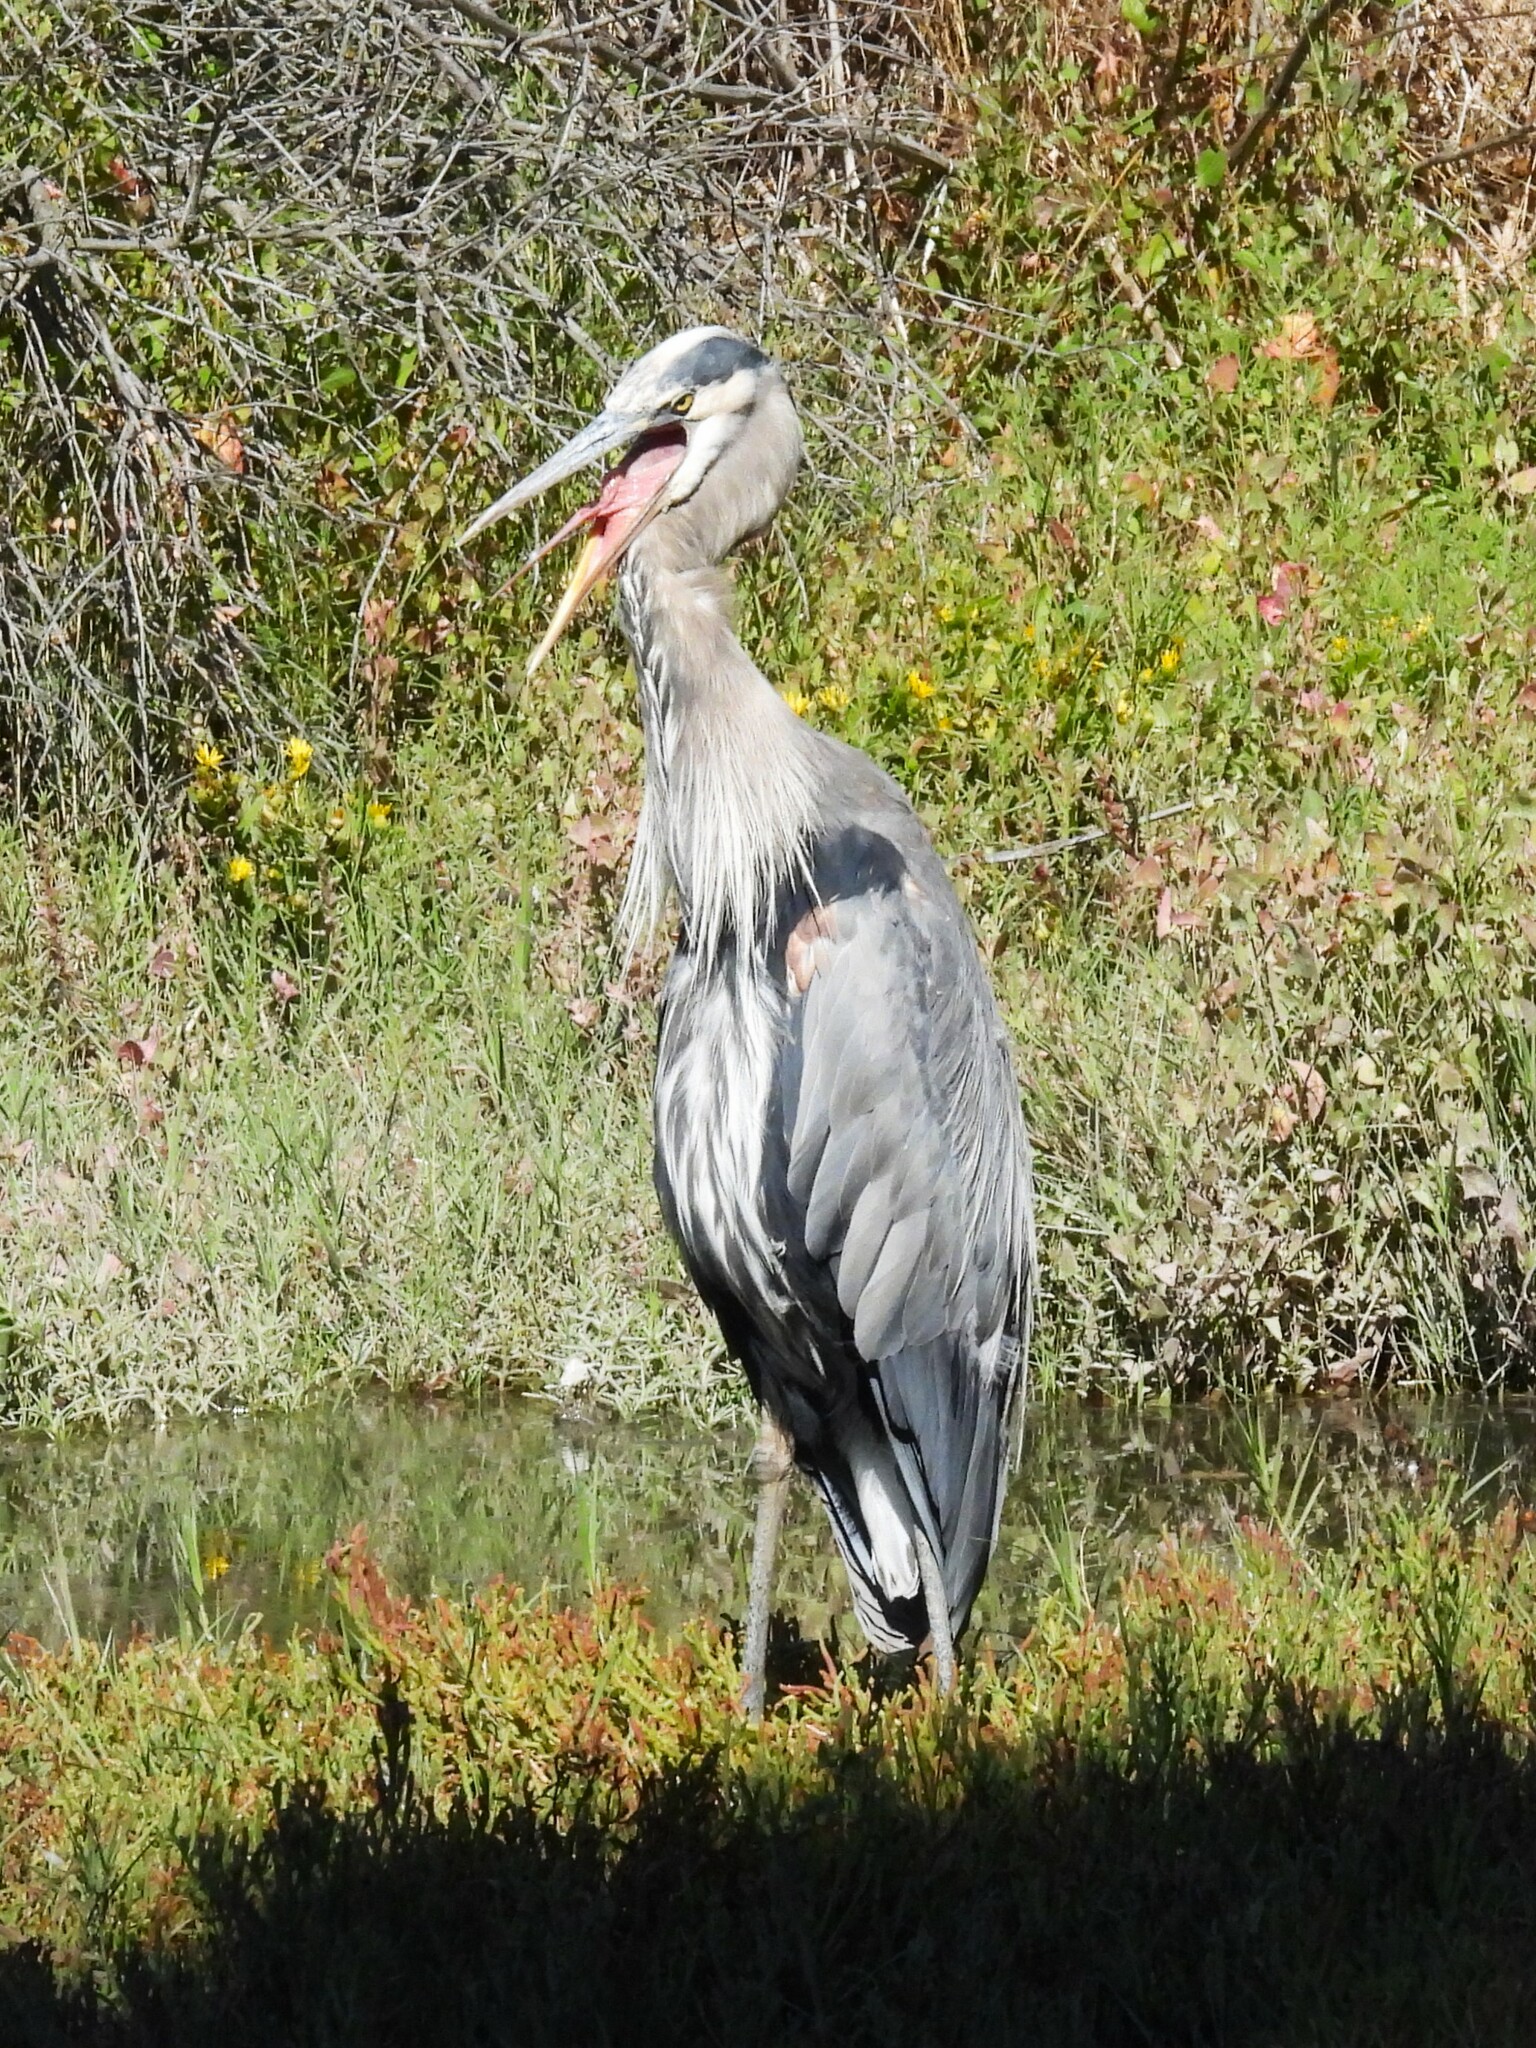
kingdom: Animalia
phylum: Chordata
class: Aves
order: Pelecaniformes
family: Ardeidae
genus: Ardea
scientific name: Ardea herodias
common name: Great blue heron
